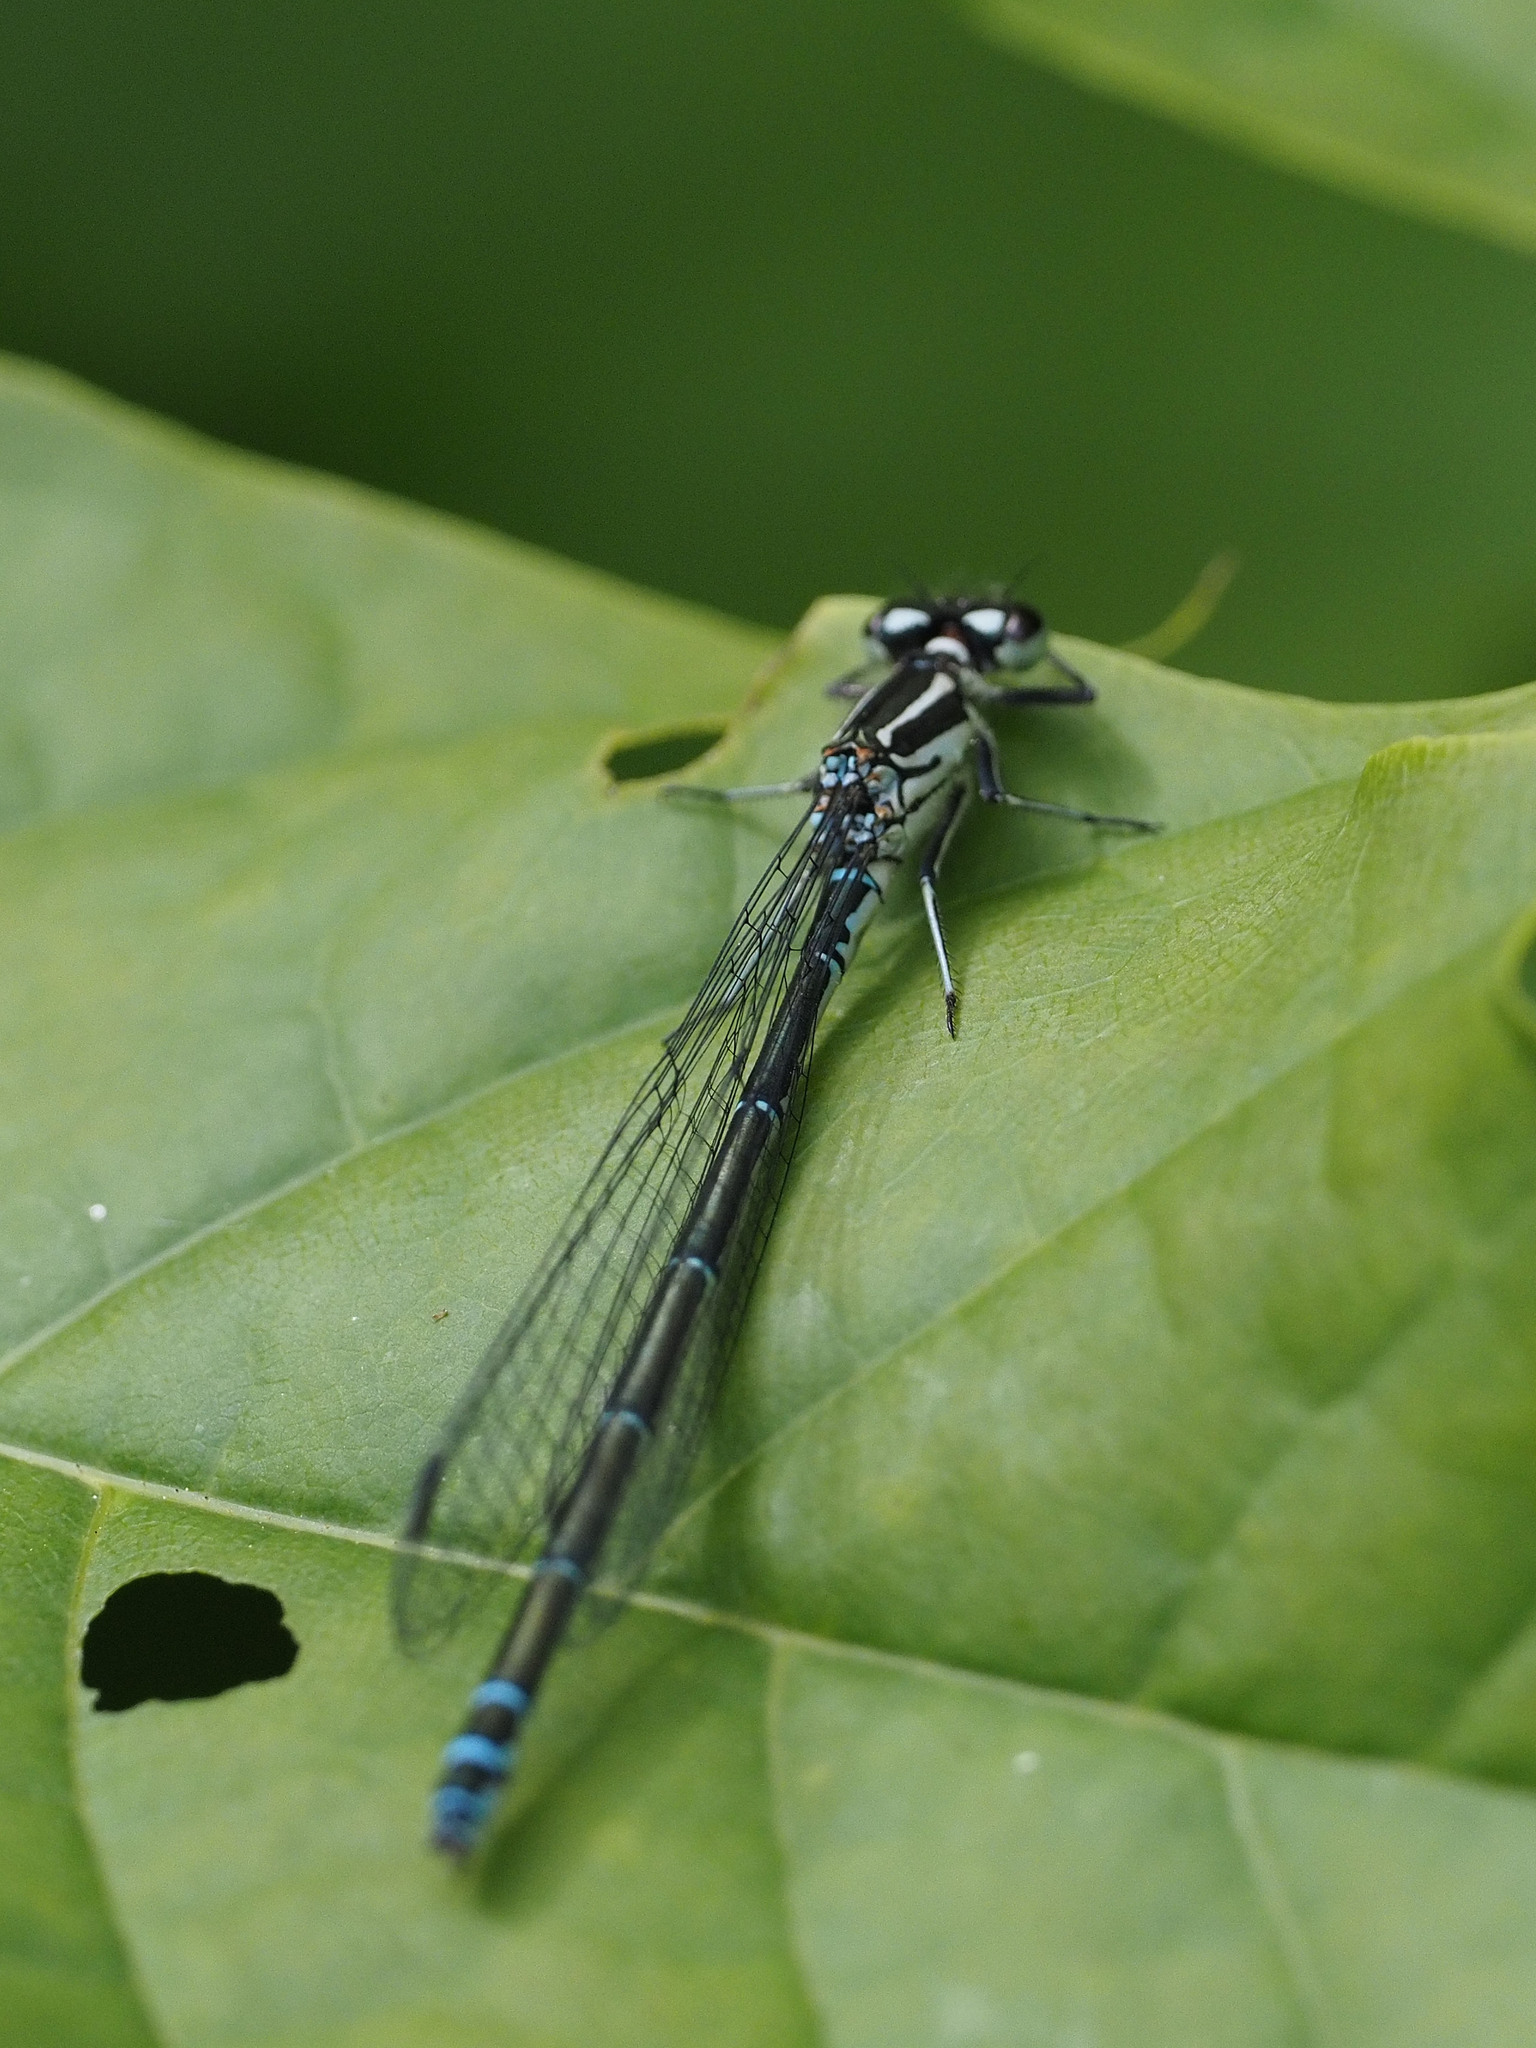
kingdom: Animalia
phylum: Arthropoda
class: Insecta
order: Odonata
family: Coenagrionidae
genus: Coenagrion
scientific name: Coenagrion puella
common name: Azure damselfly
